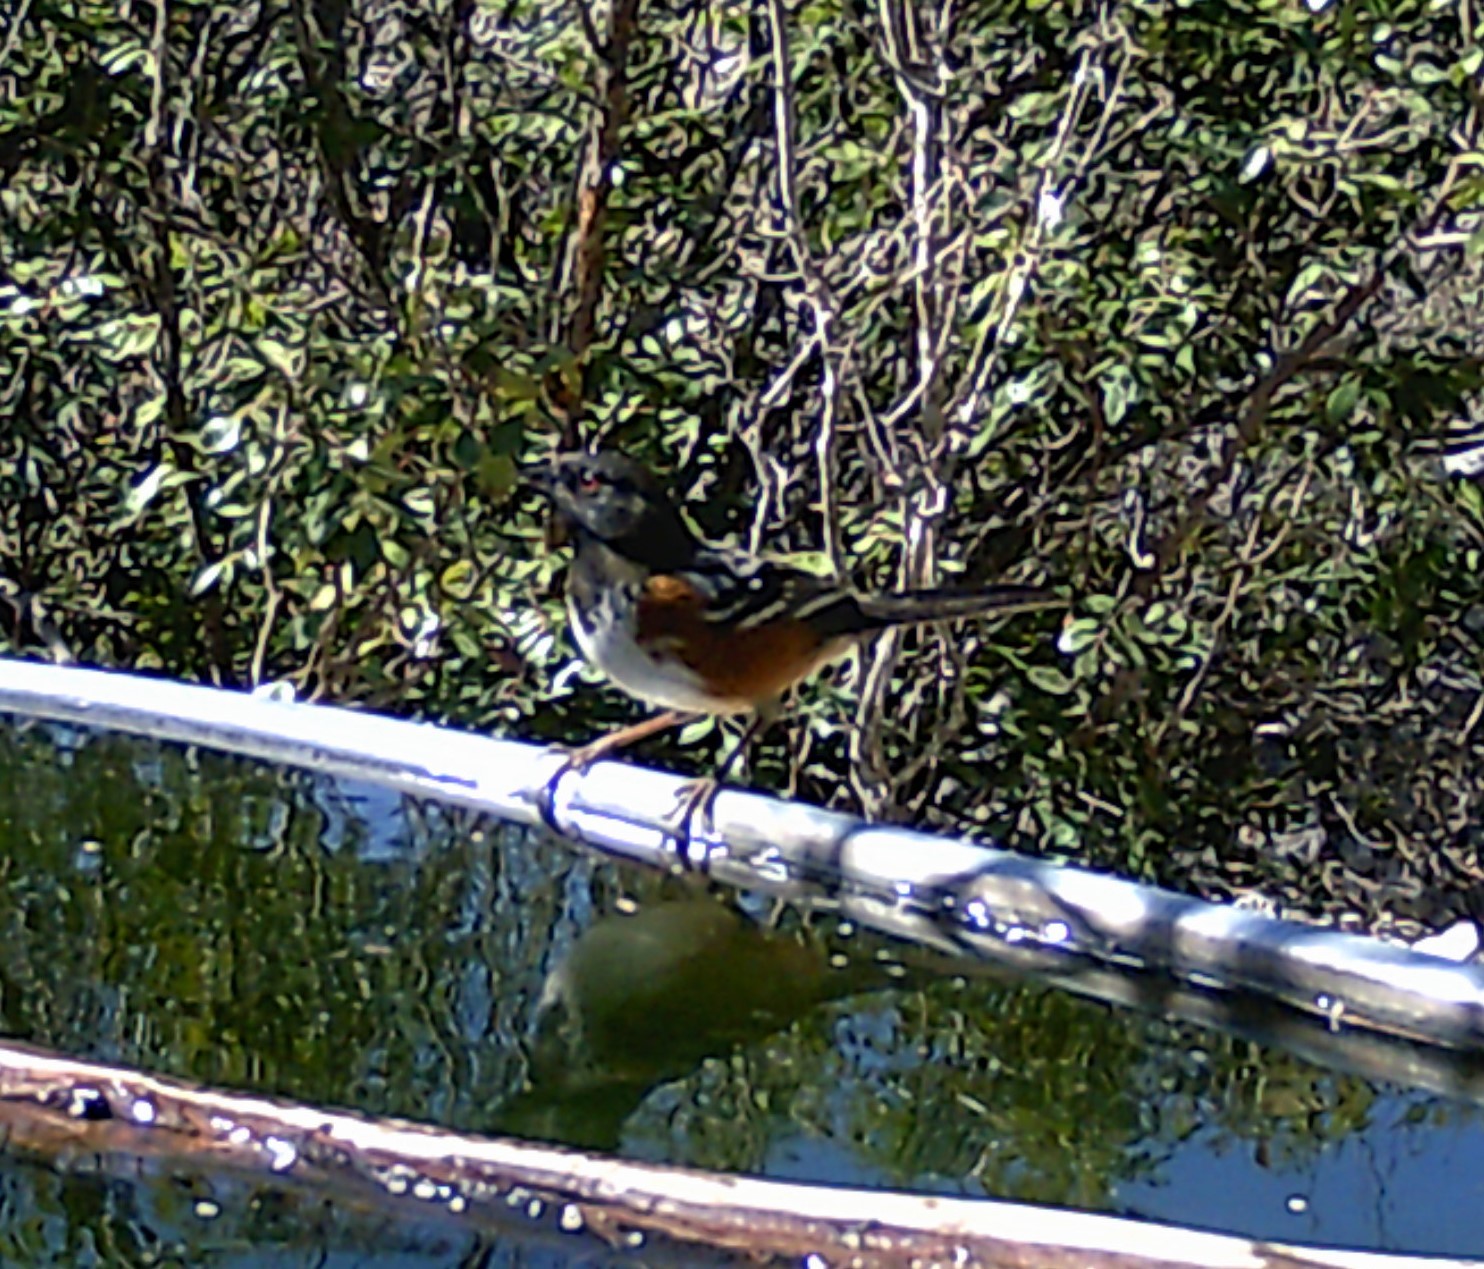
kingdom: Animalia
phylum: Chordata
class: Aves
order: Passeriformes
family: Passerellidae
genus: Pipilo
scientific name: Pipilo maculatus
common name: Spotted towhee
